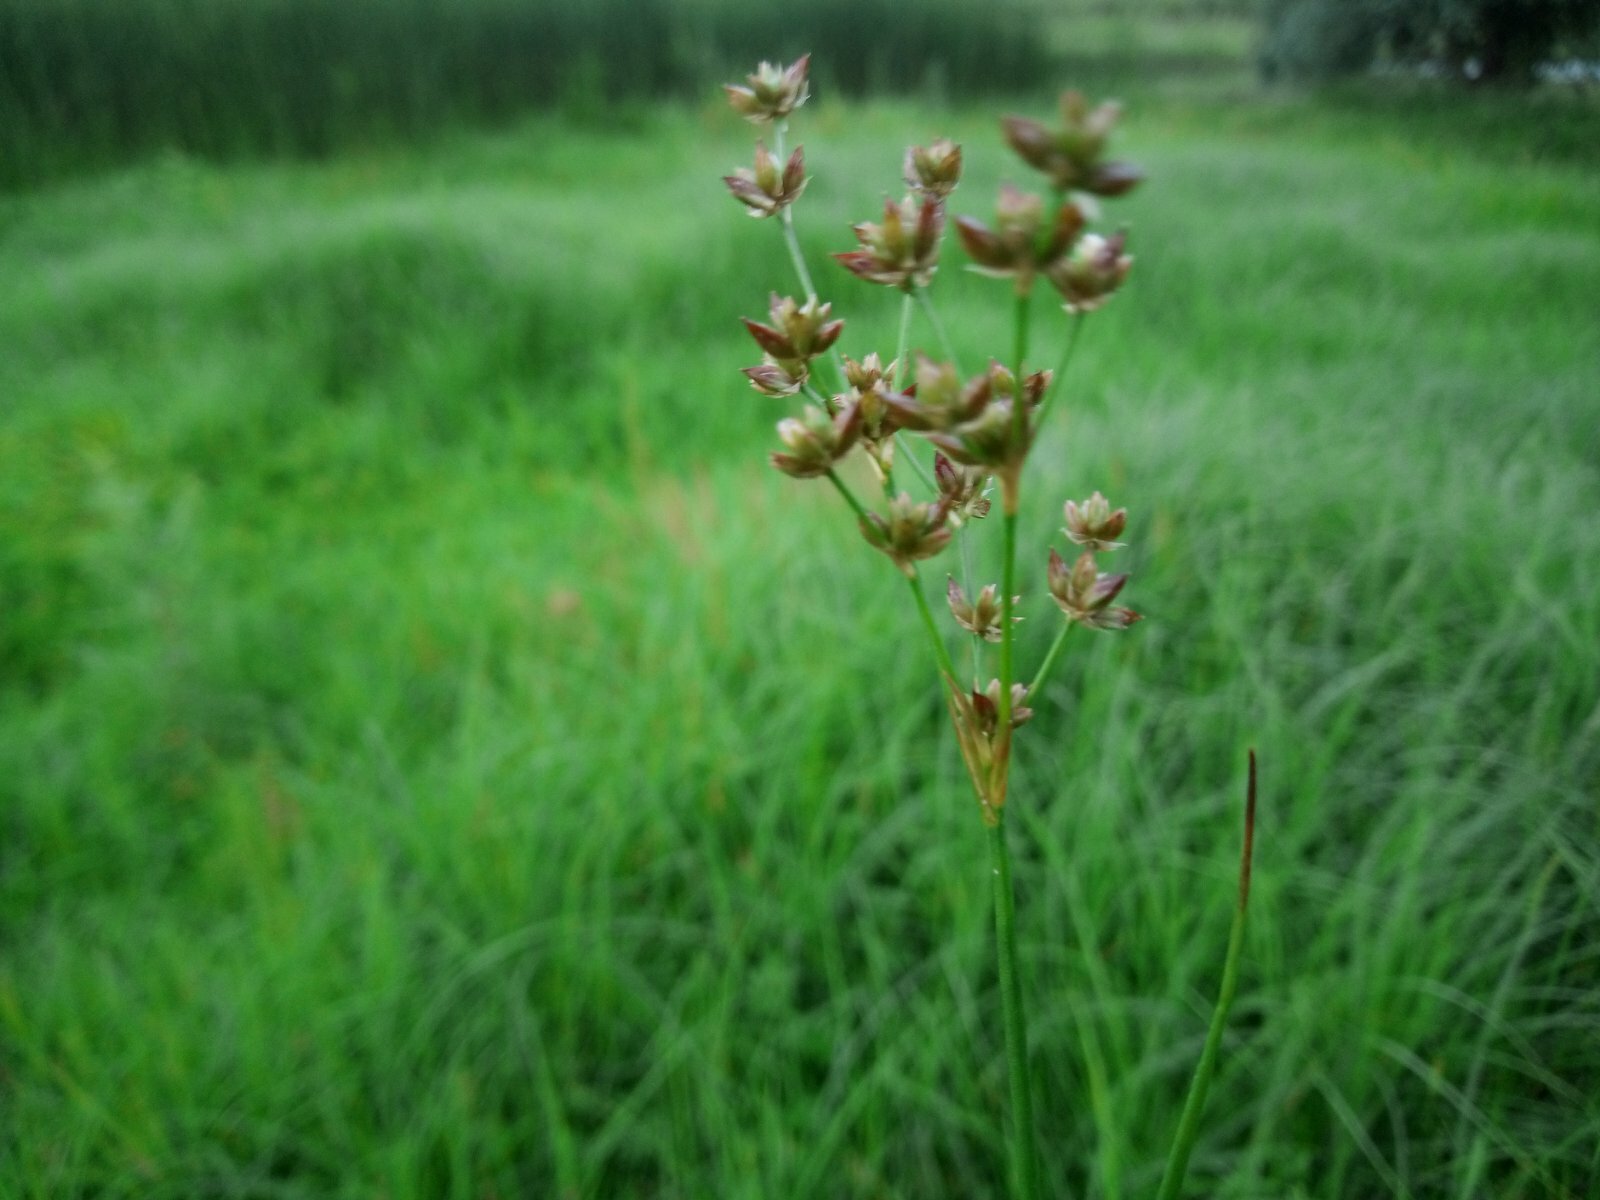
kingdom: Plantae
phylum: Tracheophyta
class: Liliopsida
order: Poales
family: Juncaceae
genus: Juncus
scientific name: Juncus articulatus
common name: Jointed rush
